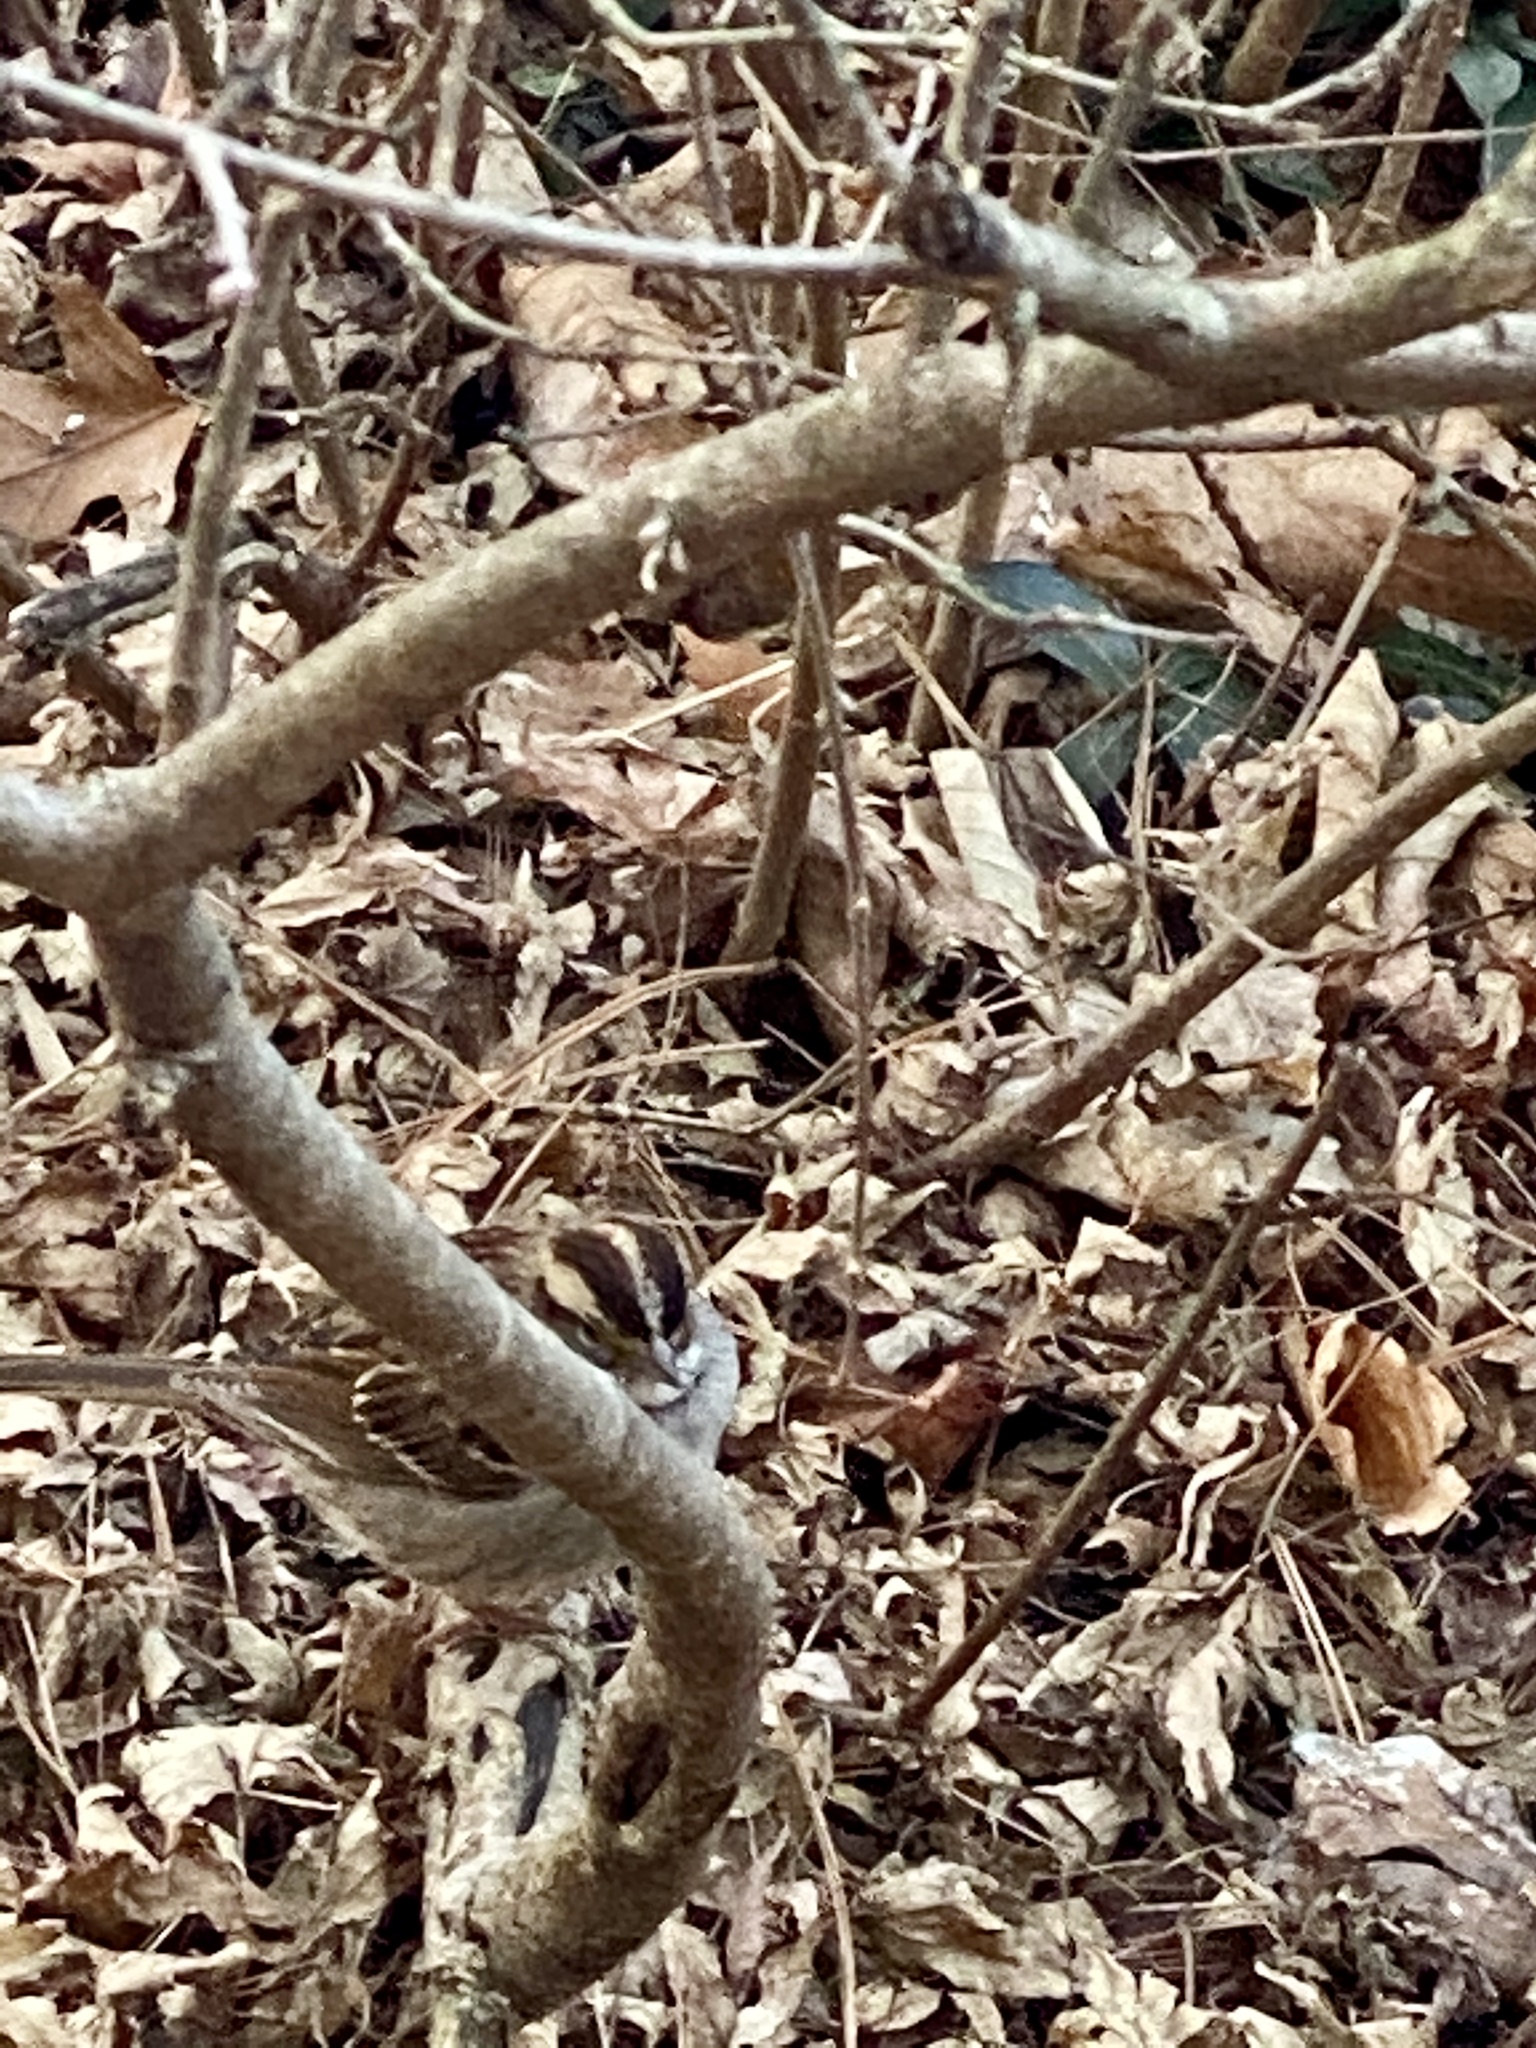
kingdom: Animalia
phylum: Chordata
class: Aves
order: Passeriformes
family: Passerellidae
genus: Zonotrichia
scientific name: Zonotrichia albicollis
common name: White-throated sparrow
